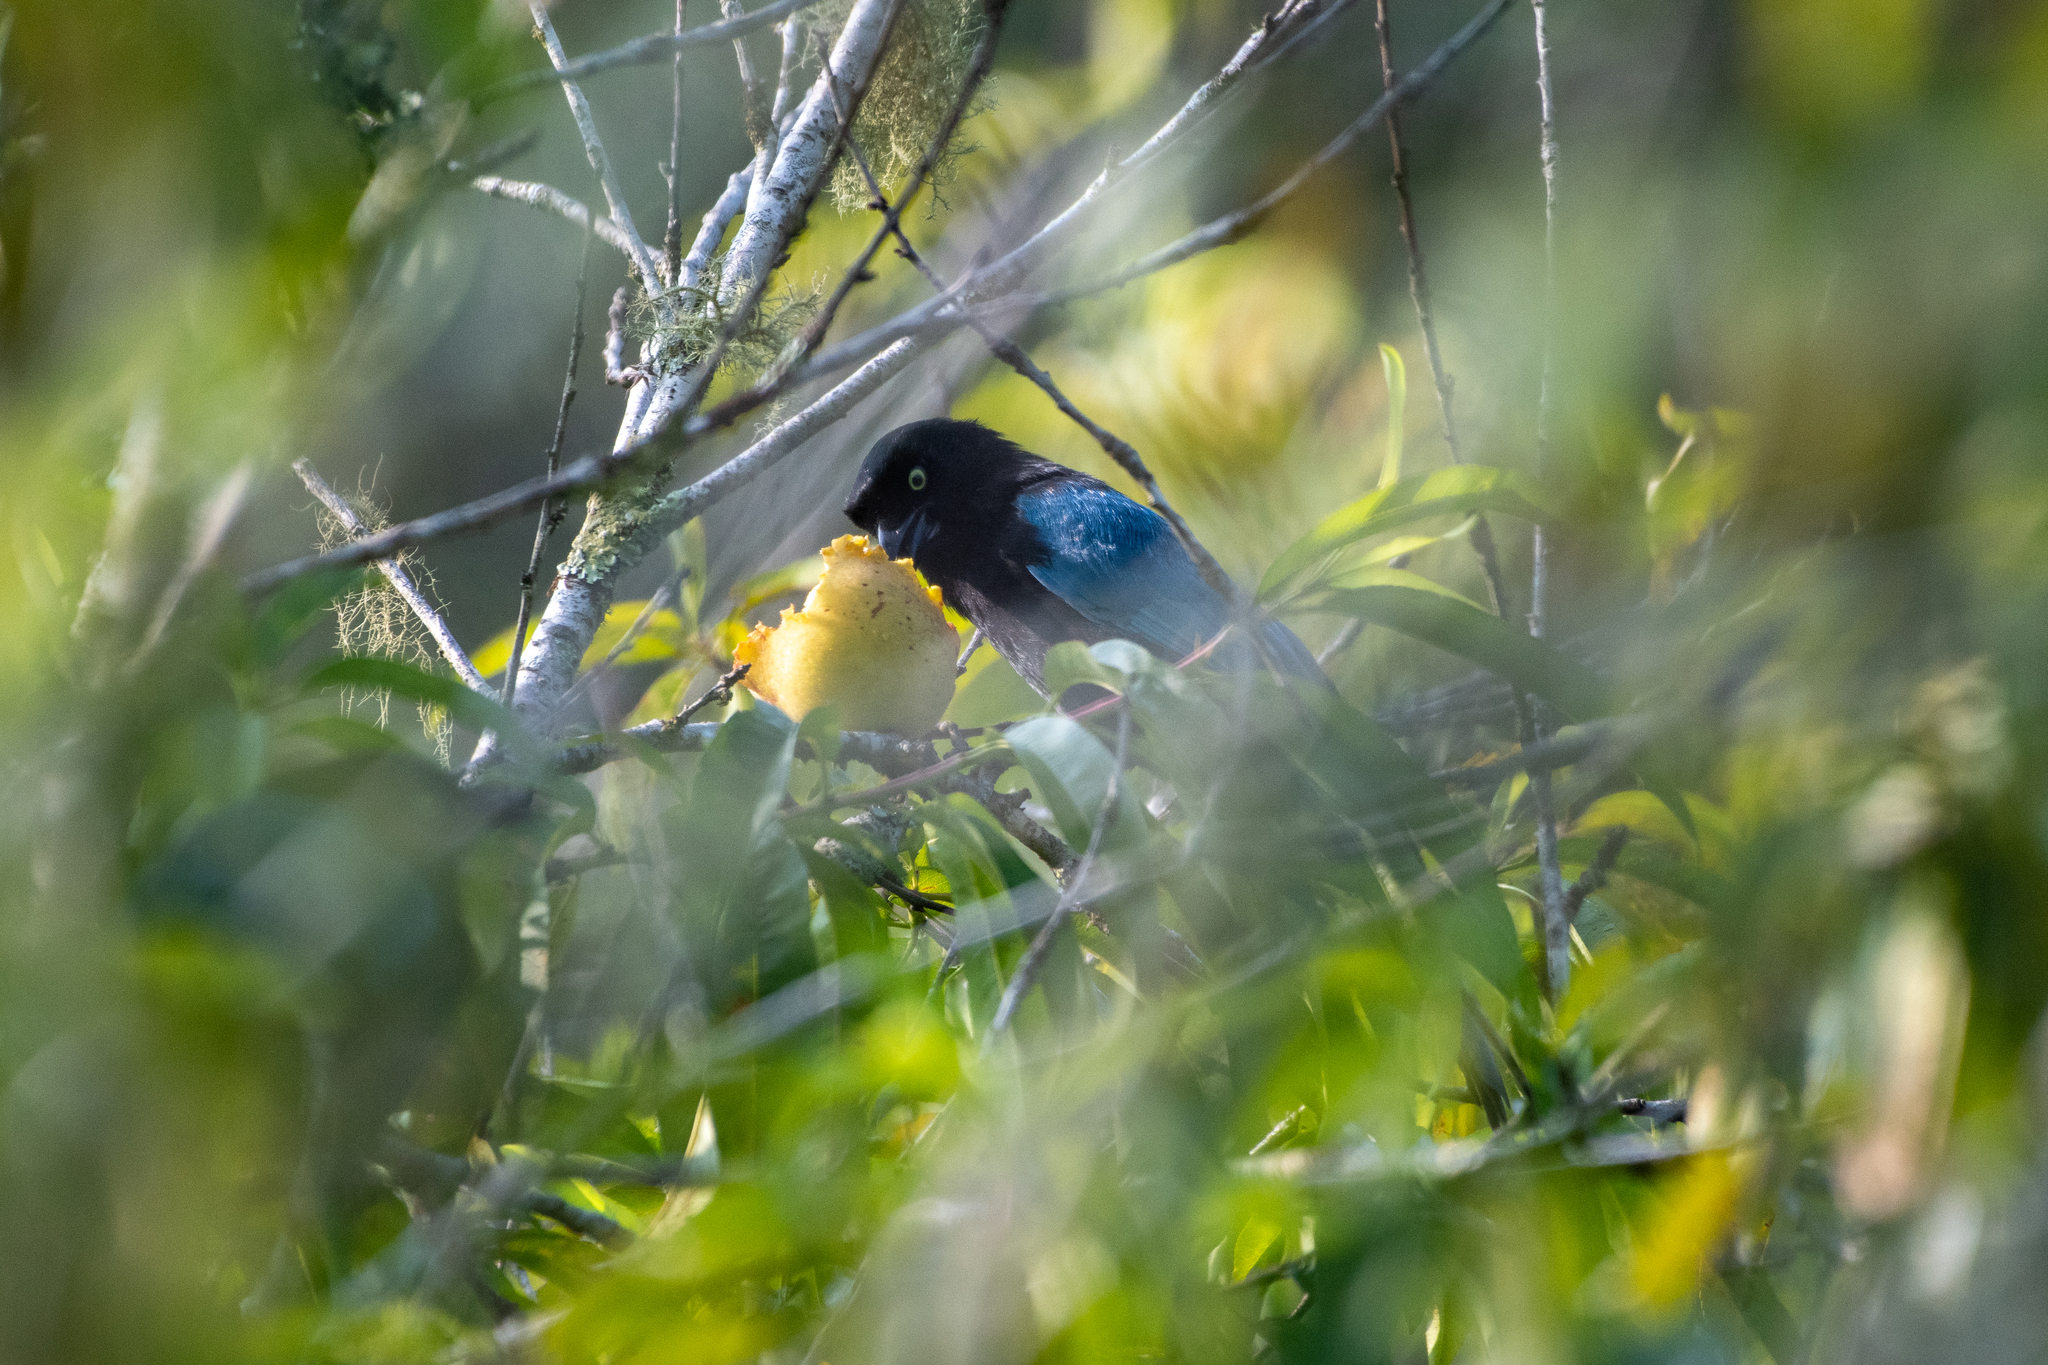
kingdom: Animalia
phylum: Chordata
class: Aves
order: Passeriformes
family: Corvidae
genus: Cyanocorax
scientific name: Cyanocorax melanocyaneus
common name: Bushy-crested jay
